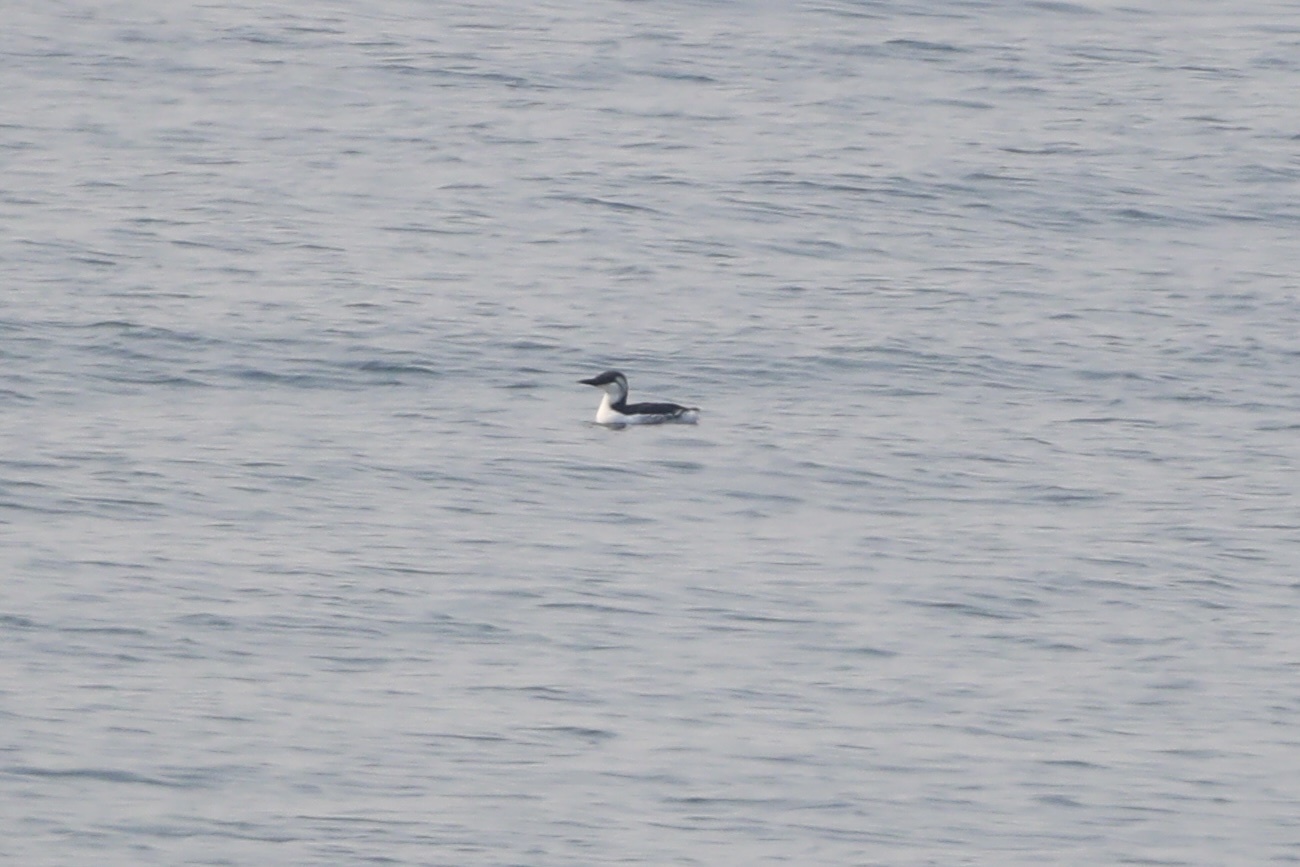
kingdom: Animalia
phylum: Chordata
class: Aves
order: Charadriiformes
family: Alcidae
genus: Uria
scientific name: Uria aalge
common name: Common murre
